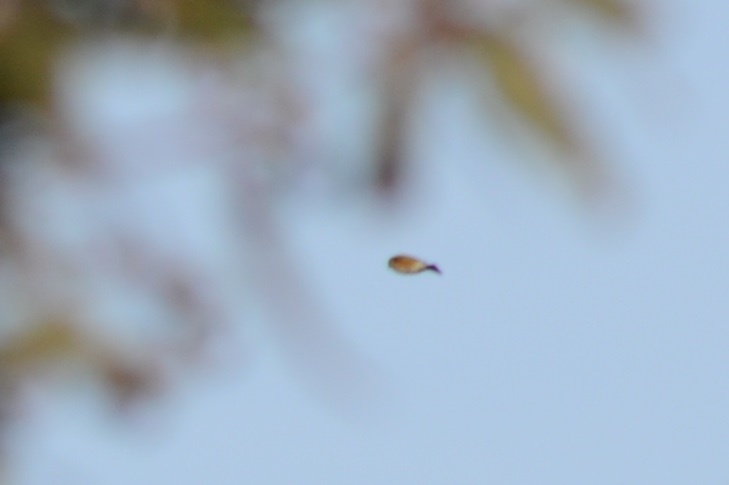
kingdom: Animalia
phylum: Chordata
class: Aves
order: Passeriformes
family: Zosteropidae
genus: Zosterops
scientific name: Zosterops lateralis
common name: Silvereye
